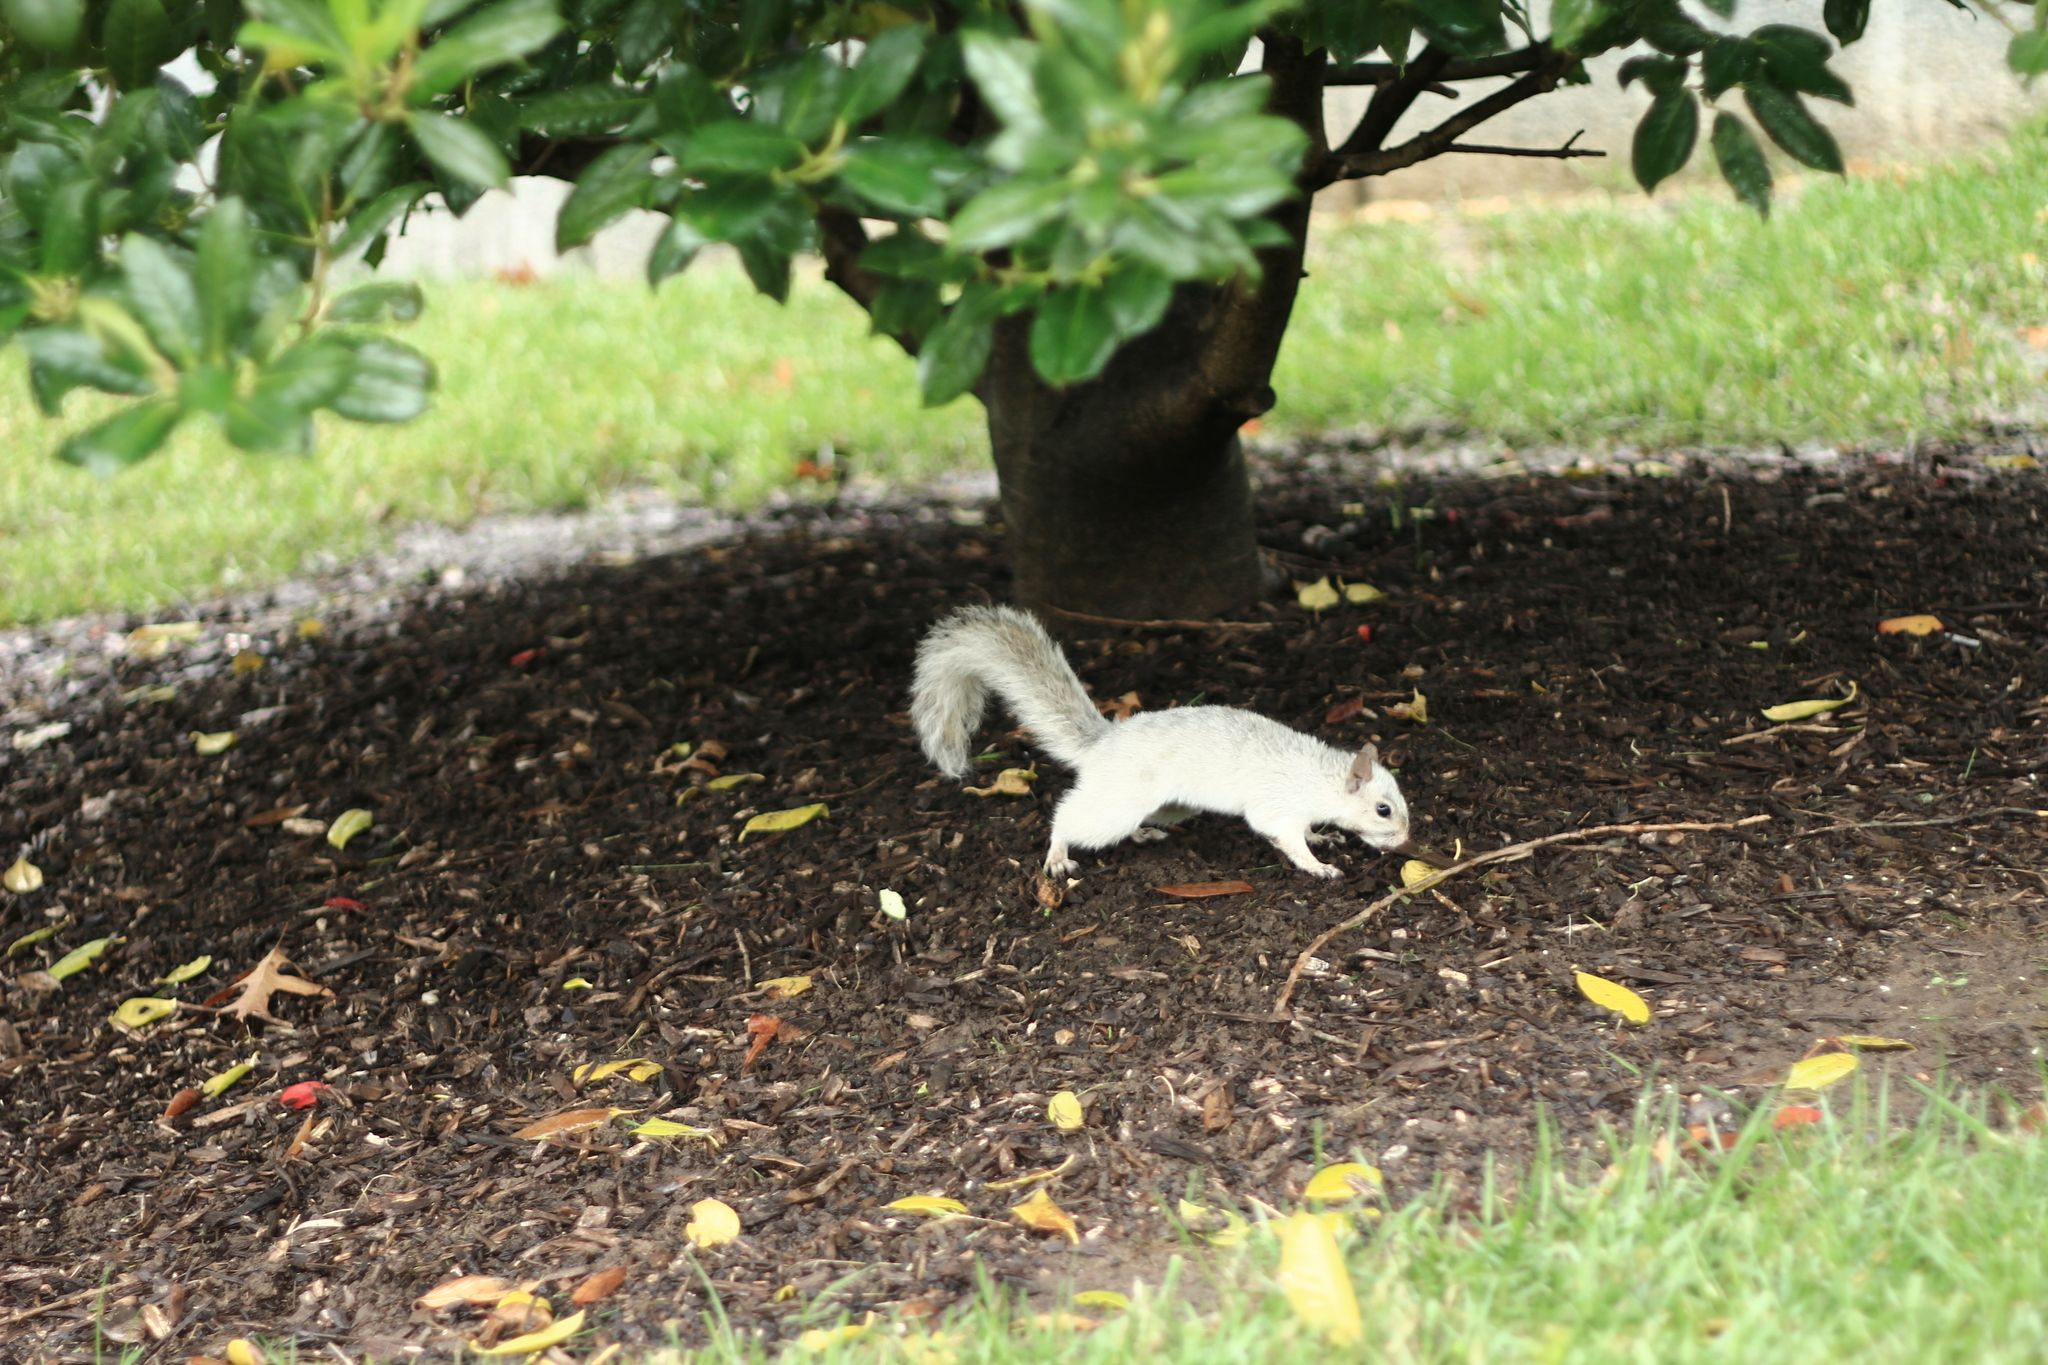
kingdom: Animalia
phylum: Chordata
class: Mammalia
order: Rodentia
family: Sciuridae
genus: Sciurus
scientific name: Sciurus carolinensis
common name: Eastern gray squirrel
